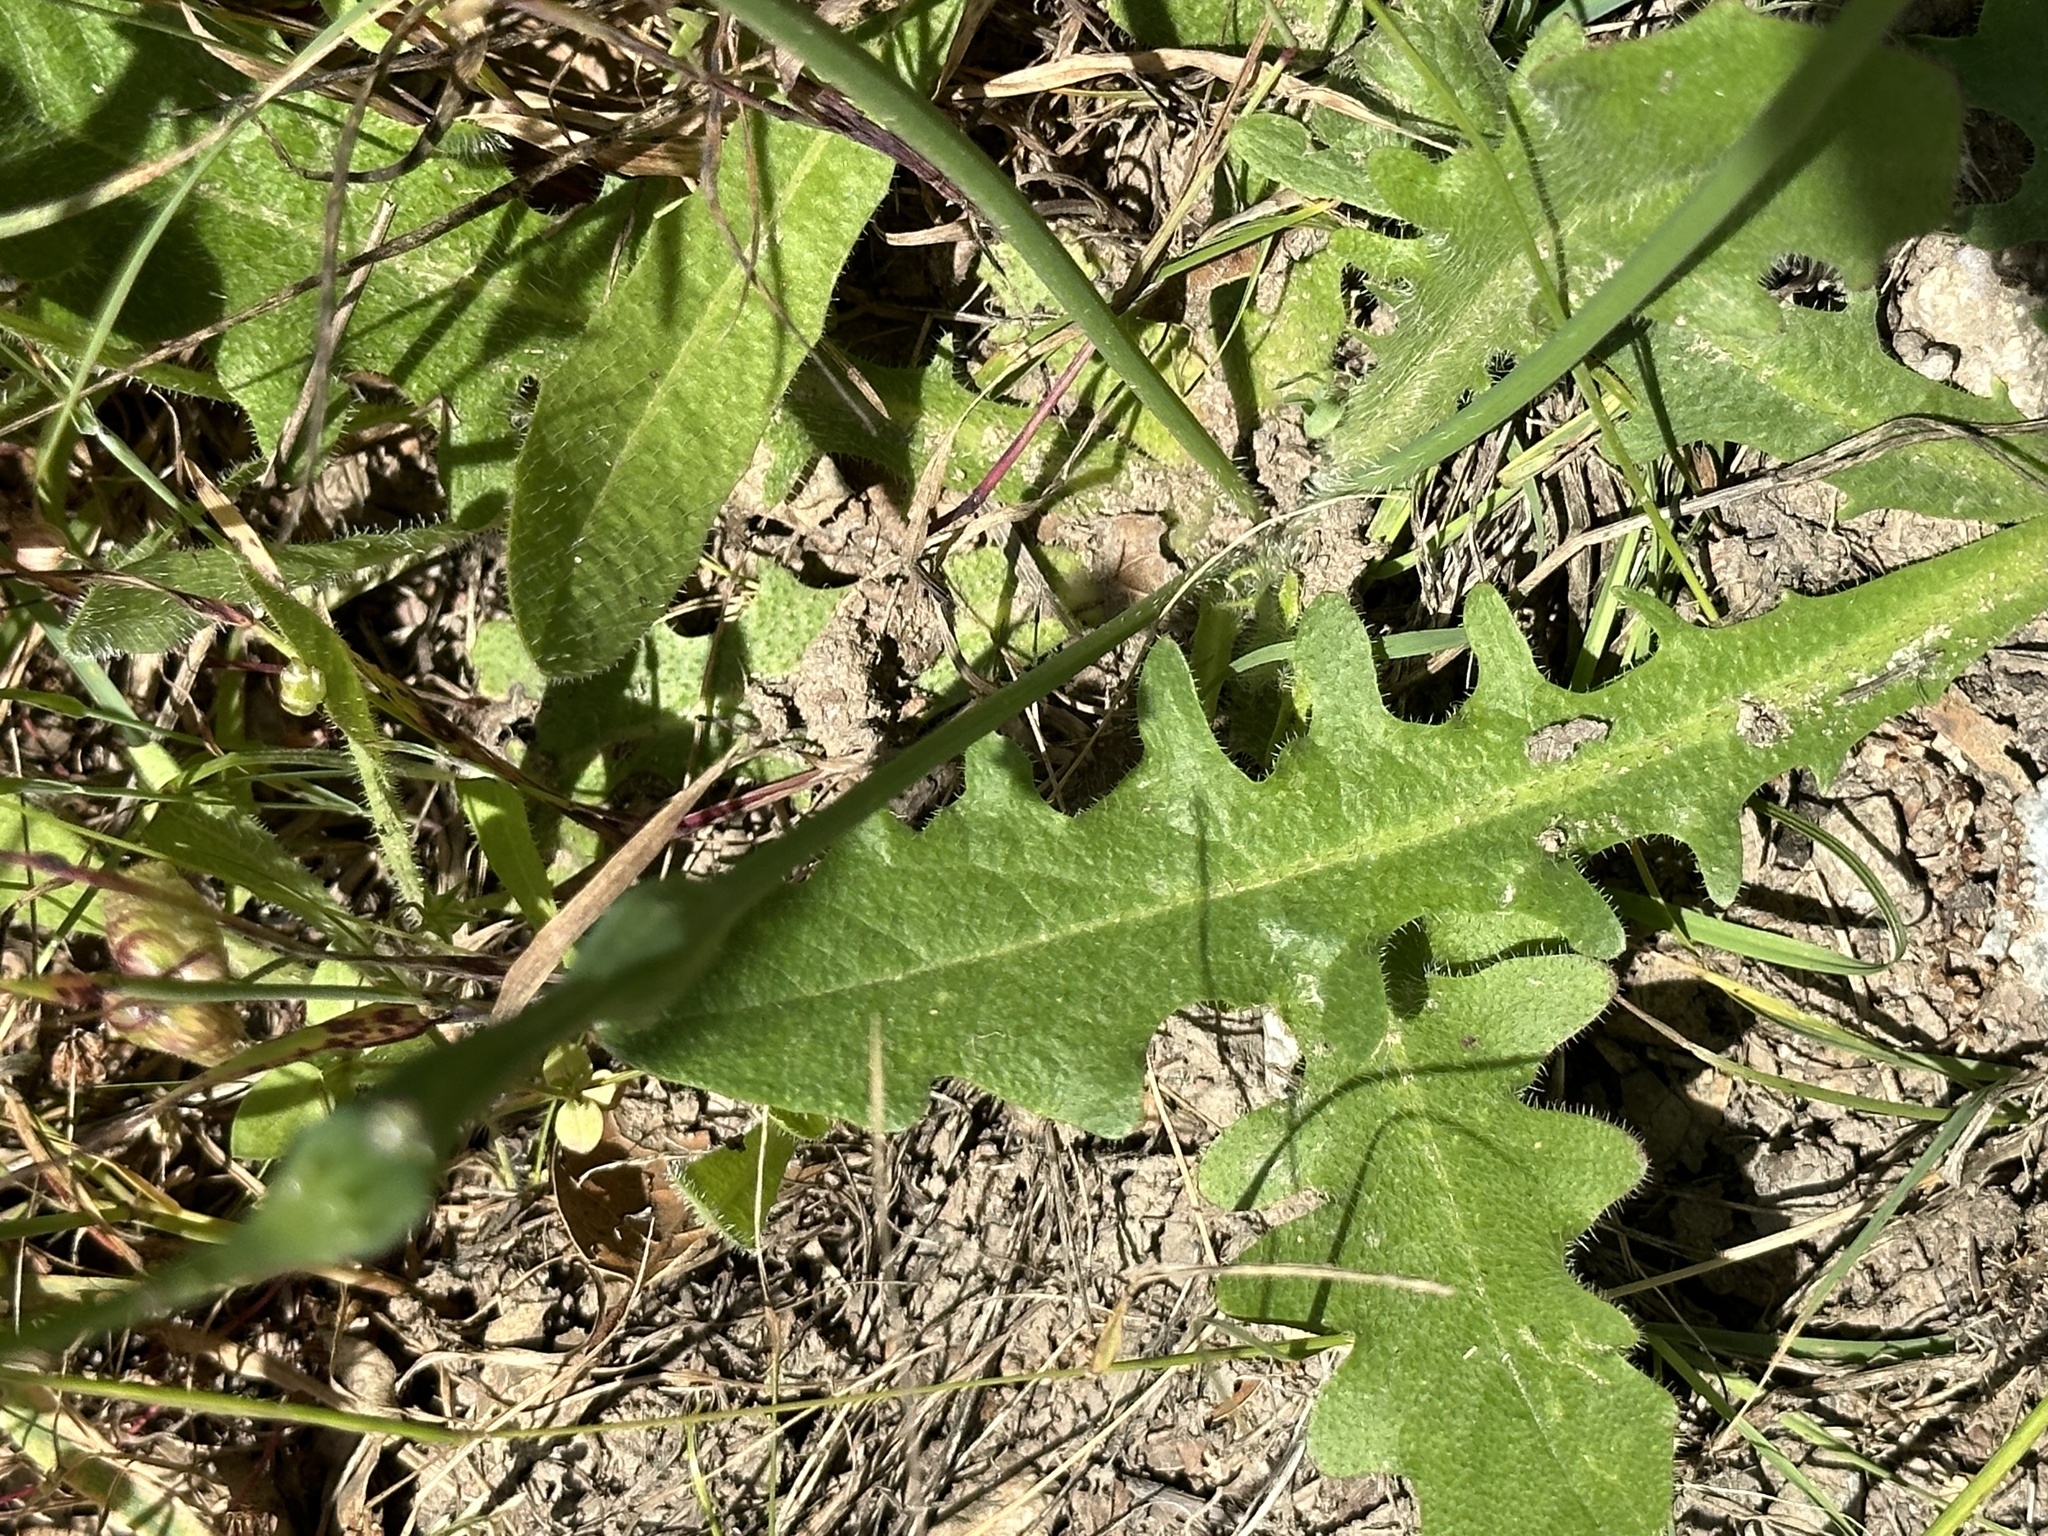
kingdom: Plantae
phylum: Tracheophyta
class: Magnoliopsida
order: Asterales
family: Asteraceae
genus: Hypochaeris
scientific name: Hypochaeris radicata
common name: Flatweed
